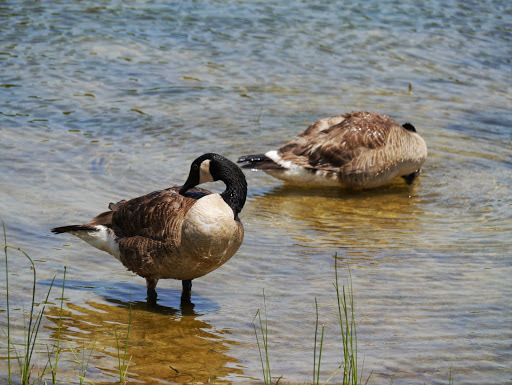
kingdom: Animalia
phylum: Chordata
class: Aves
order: Anseriformes
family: Anatidae
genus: Branta
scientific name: Branta canadensis
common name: Canada goose
